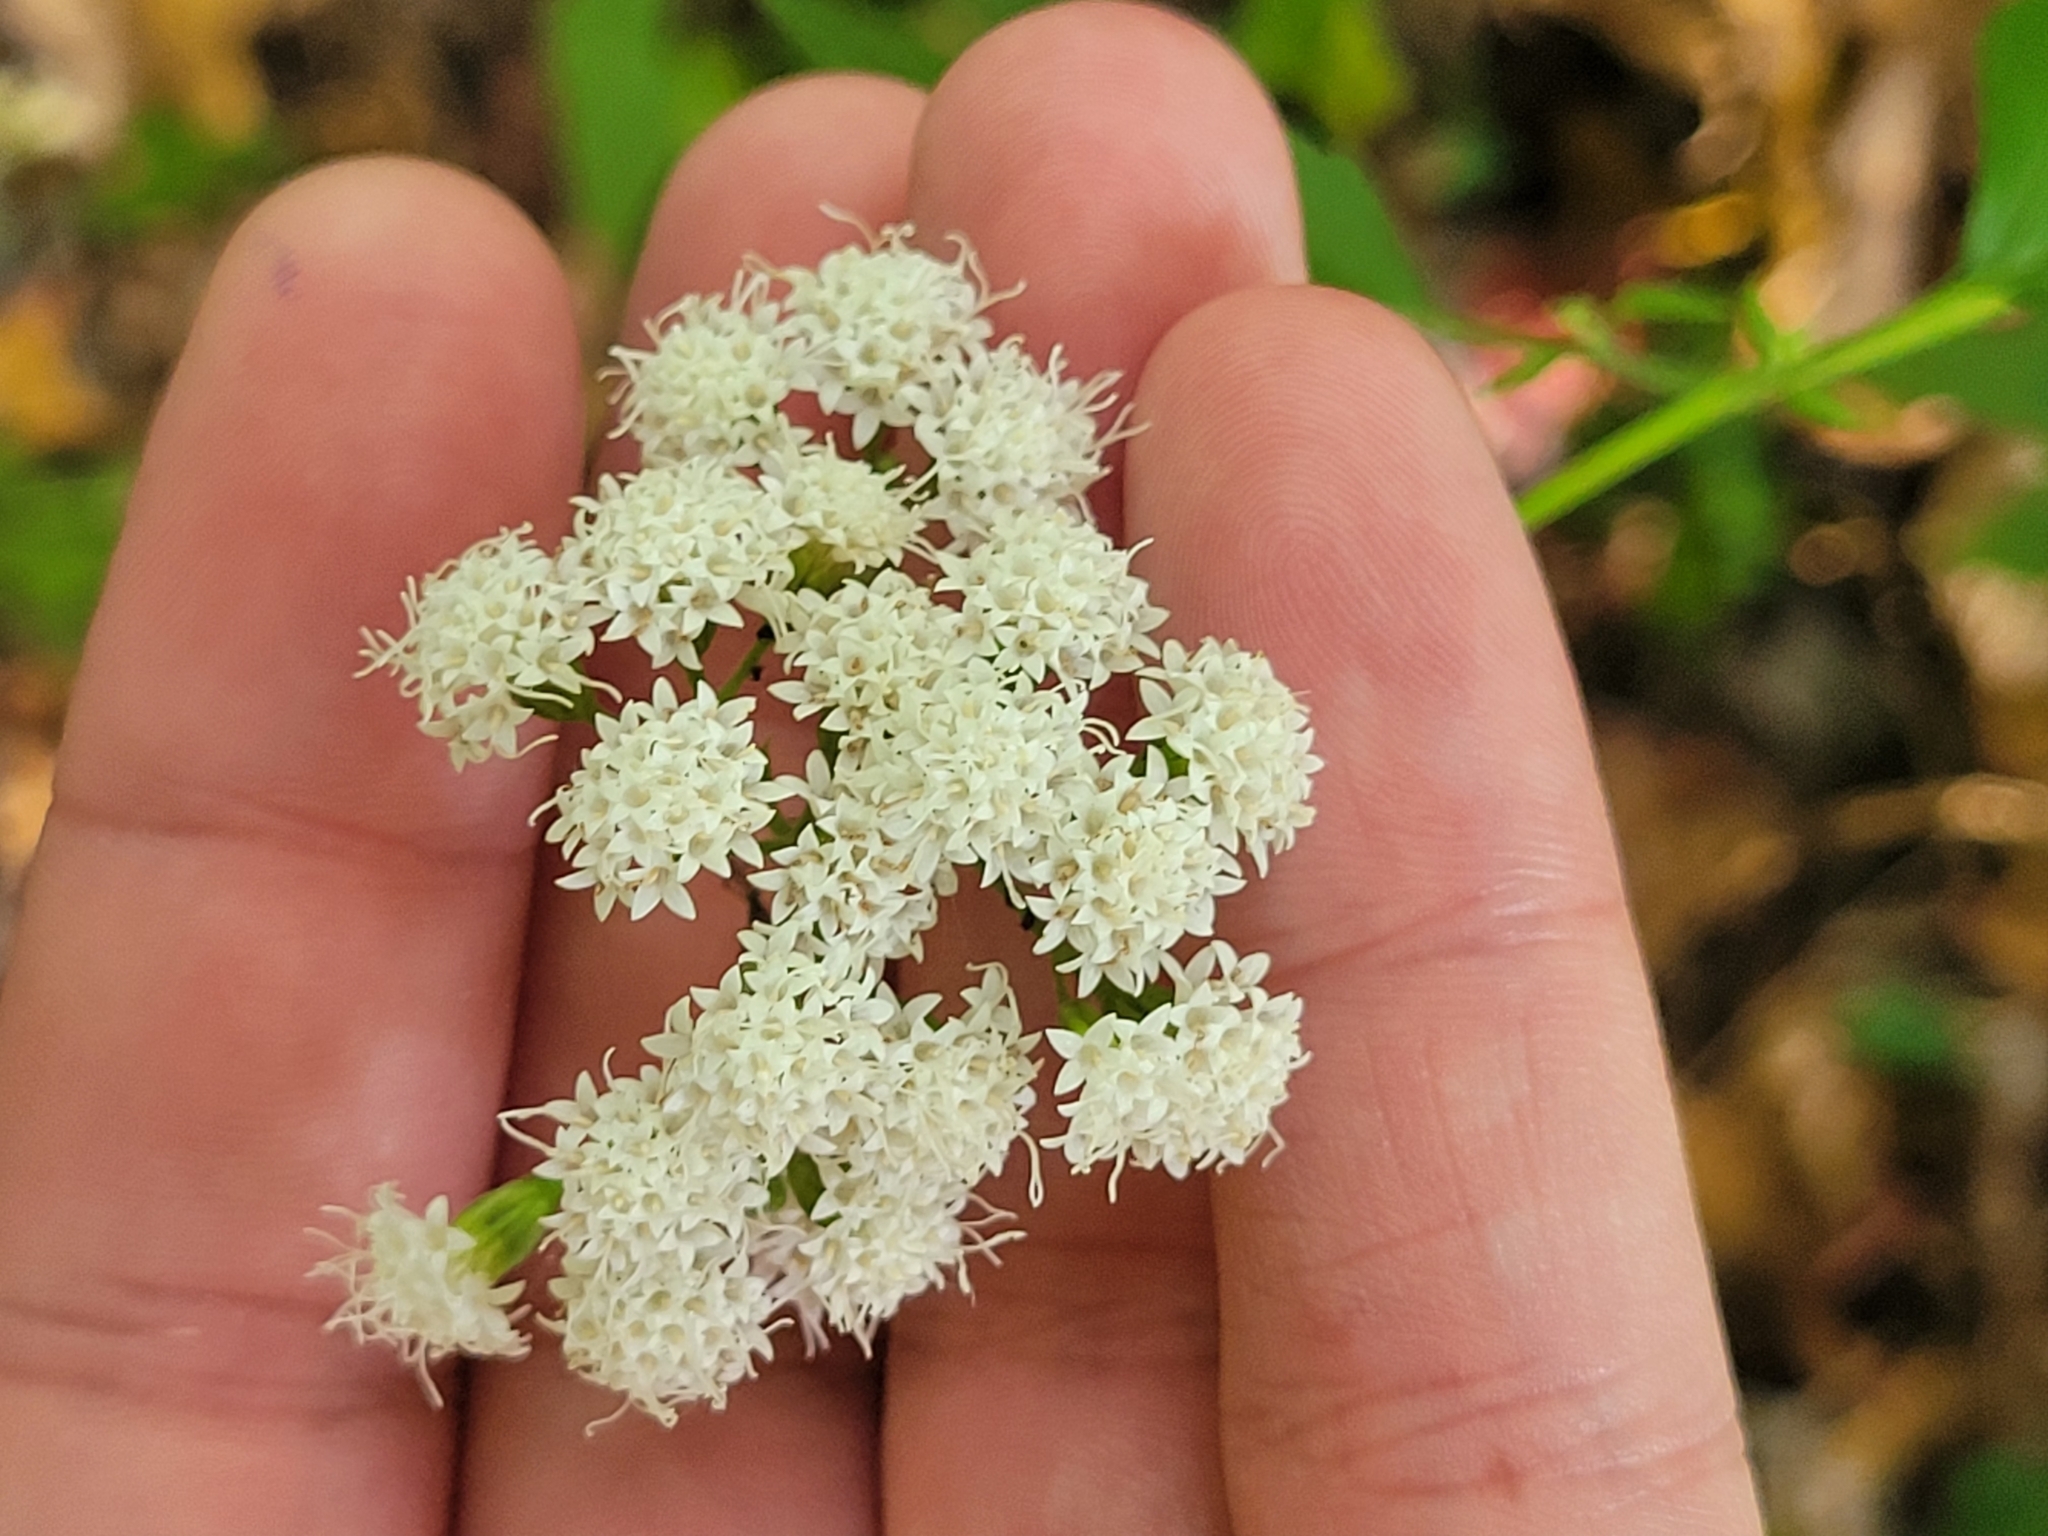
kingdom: Plantae
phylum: Tracheophyta
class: Magnoliopsida
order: Asterales
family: Asteraceae
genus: Ageratina
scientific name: Ageratina altissima
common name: White snakeroot
